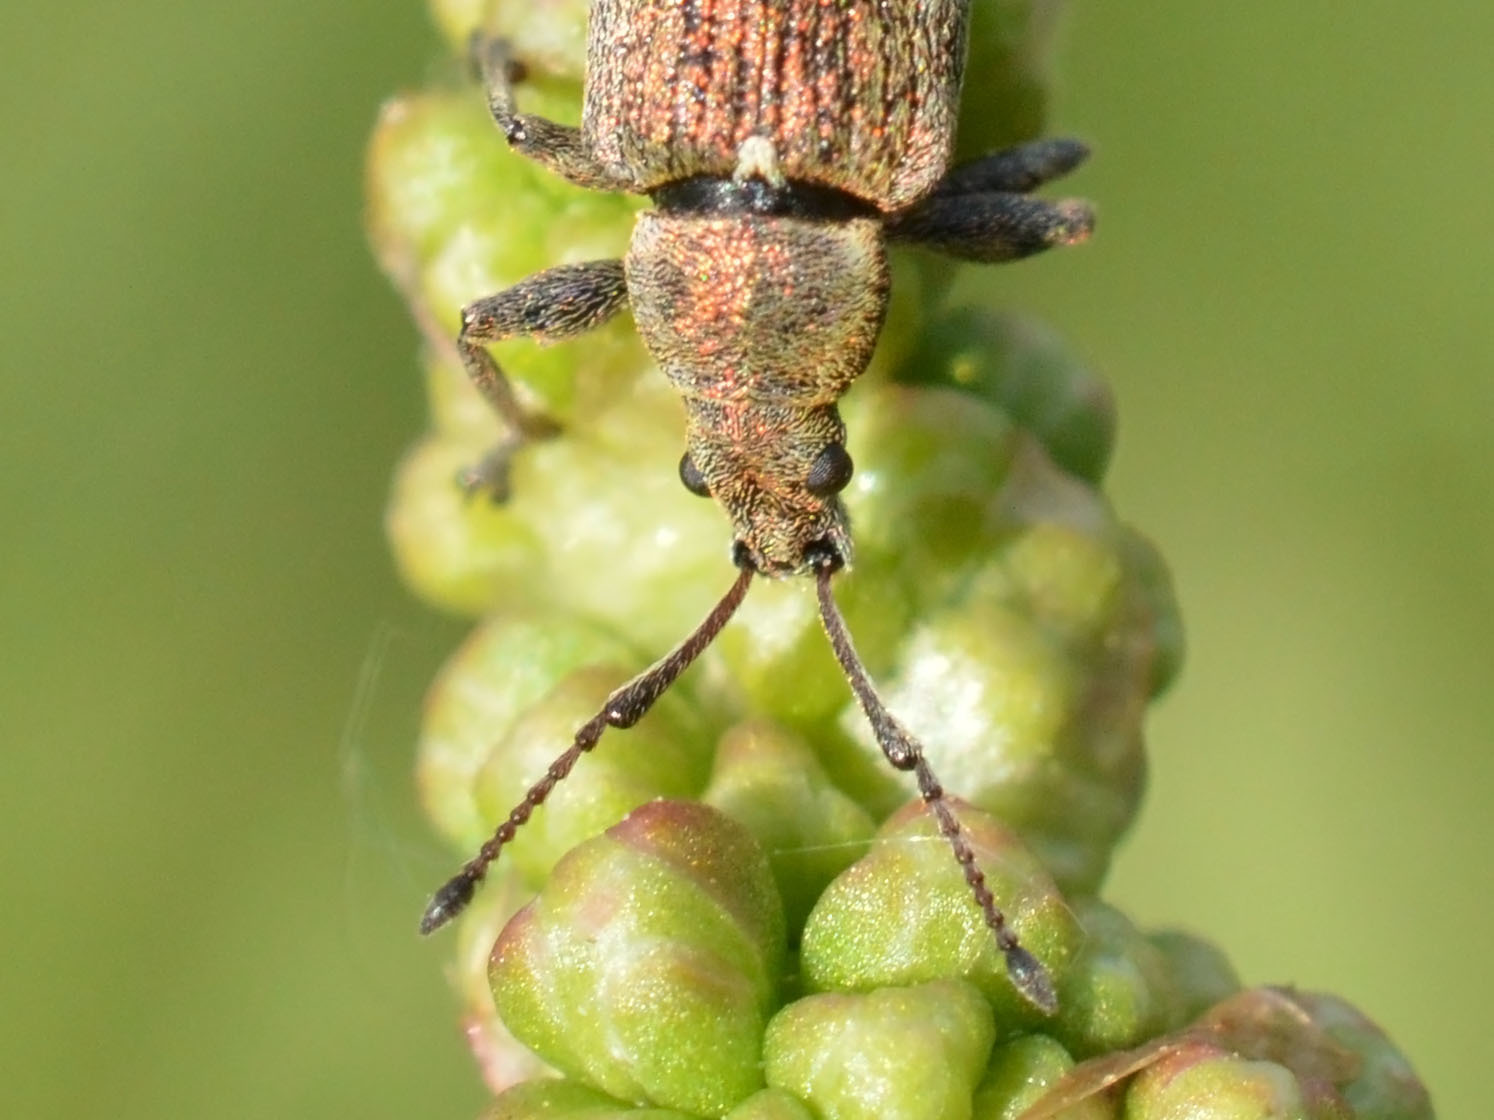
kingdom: Animalia
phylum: Arthropoda
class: Insecta
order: Coleoptera
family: Curculionidae
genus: Phyllobius
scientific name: Phyllobius pyri
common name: Common leaf weevil
